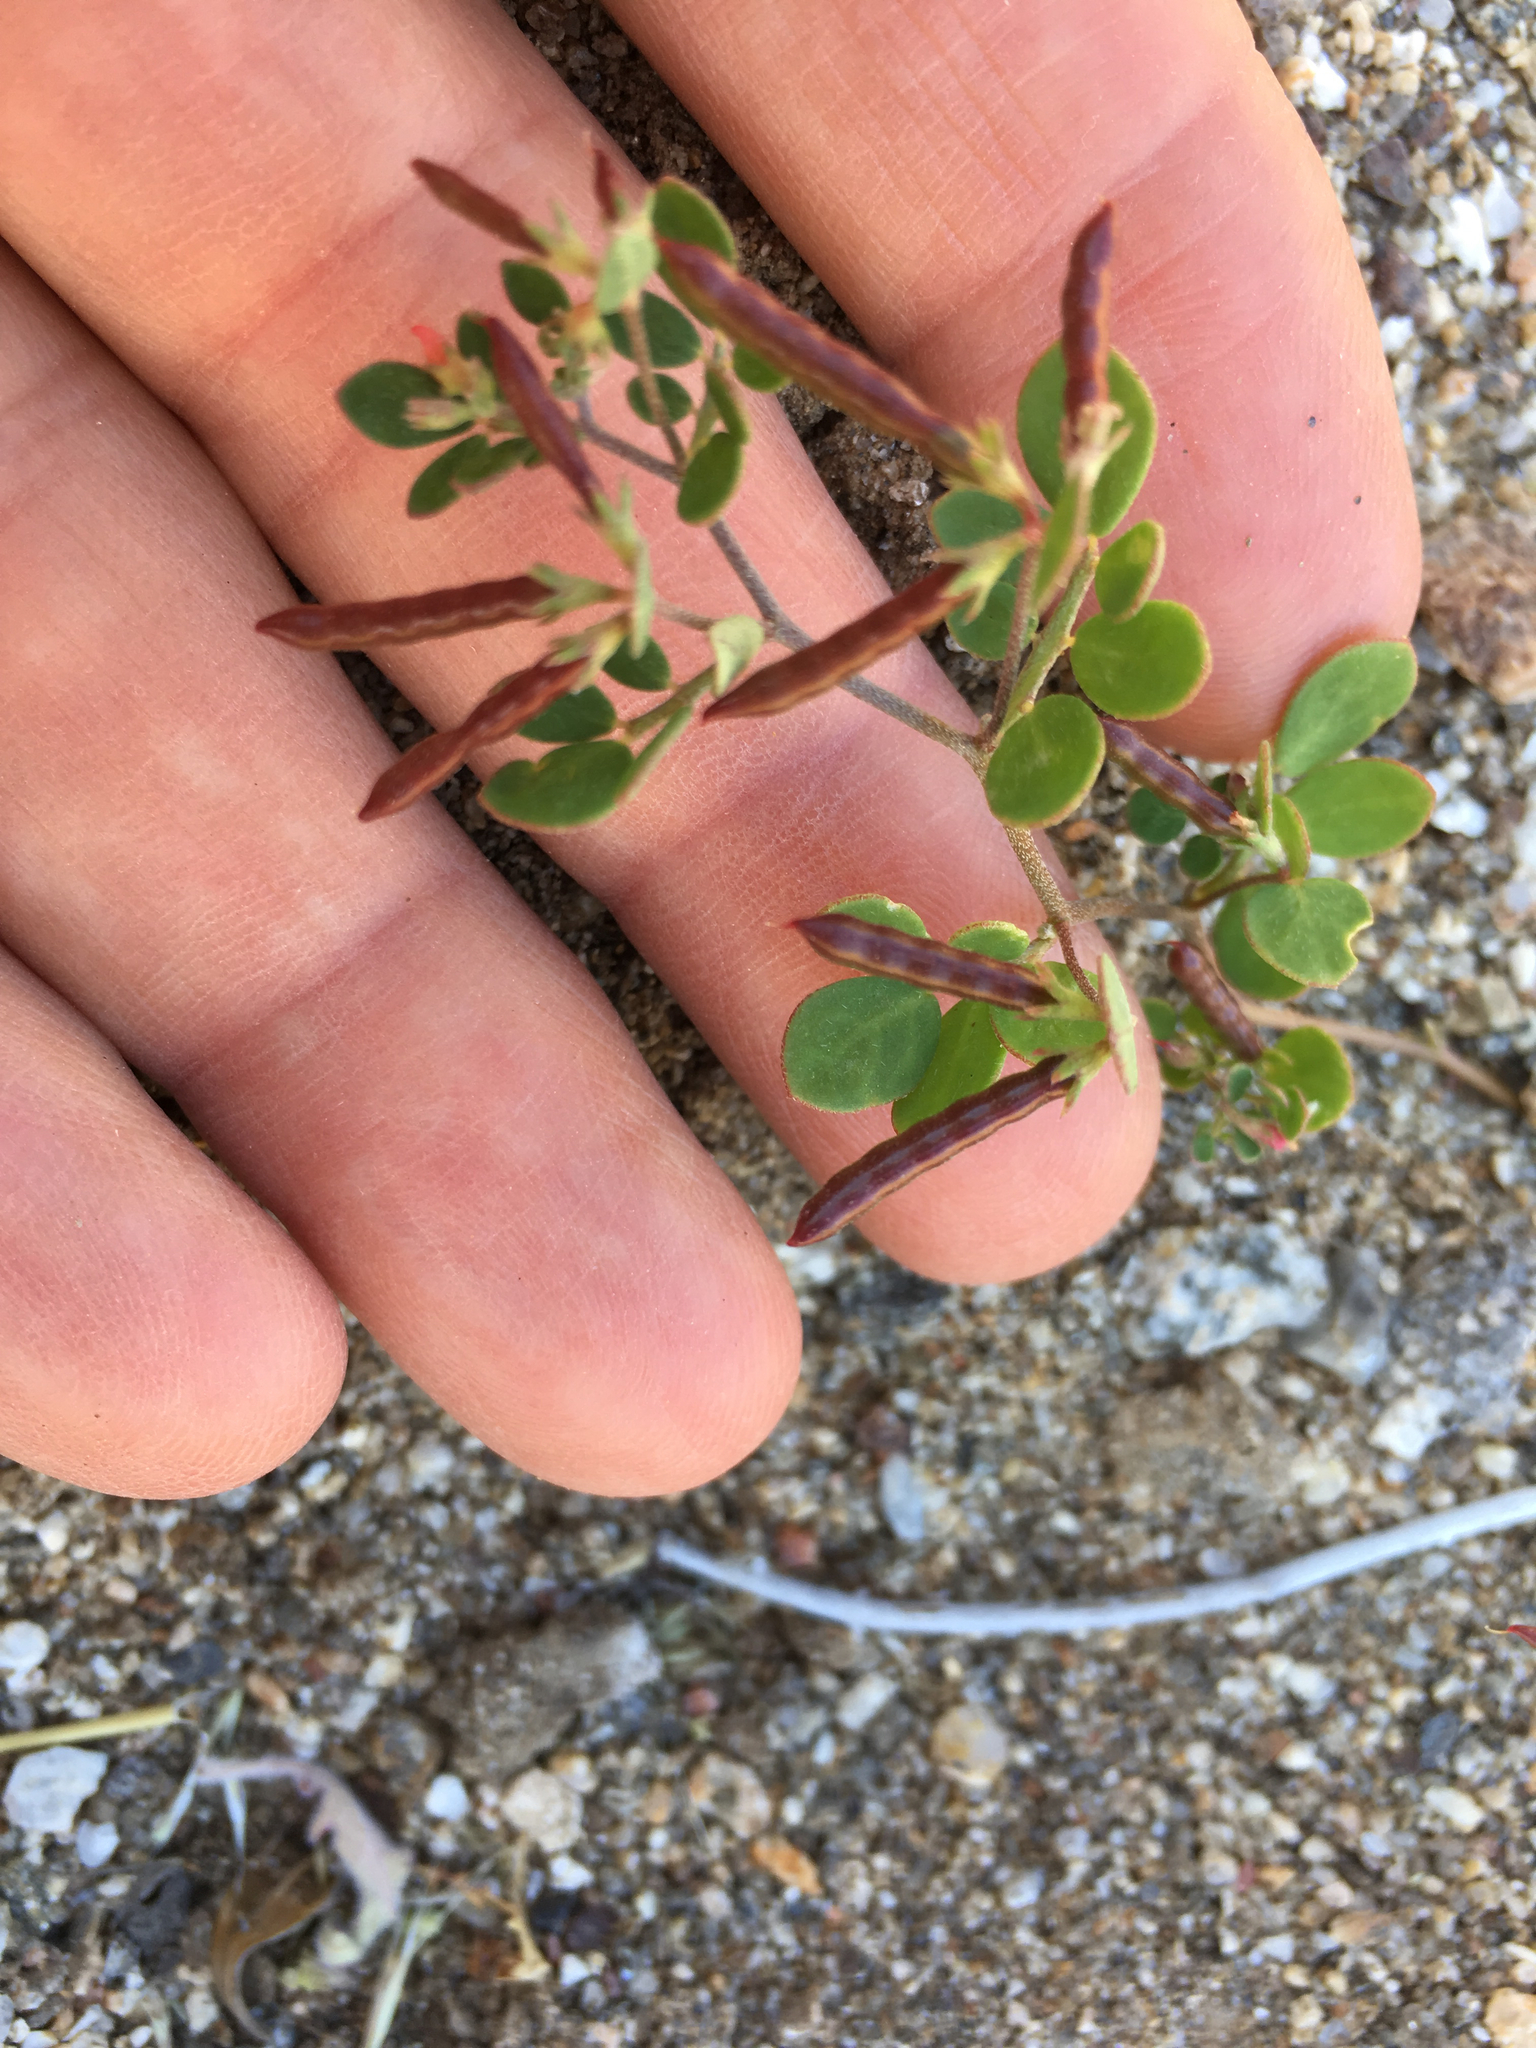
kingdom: Plantae
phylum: Tracheophyta
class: Magnoliopsida
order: Fabales
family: Fabaceae
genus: Acmispon
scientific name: Acmispon maritimus
